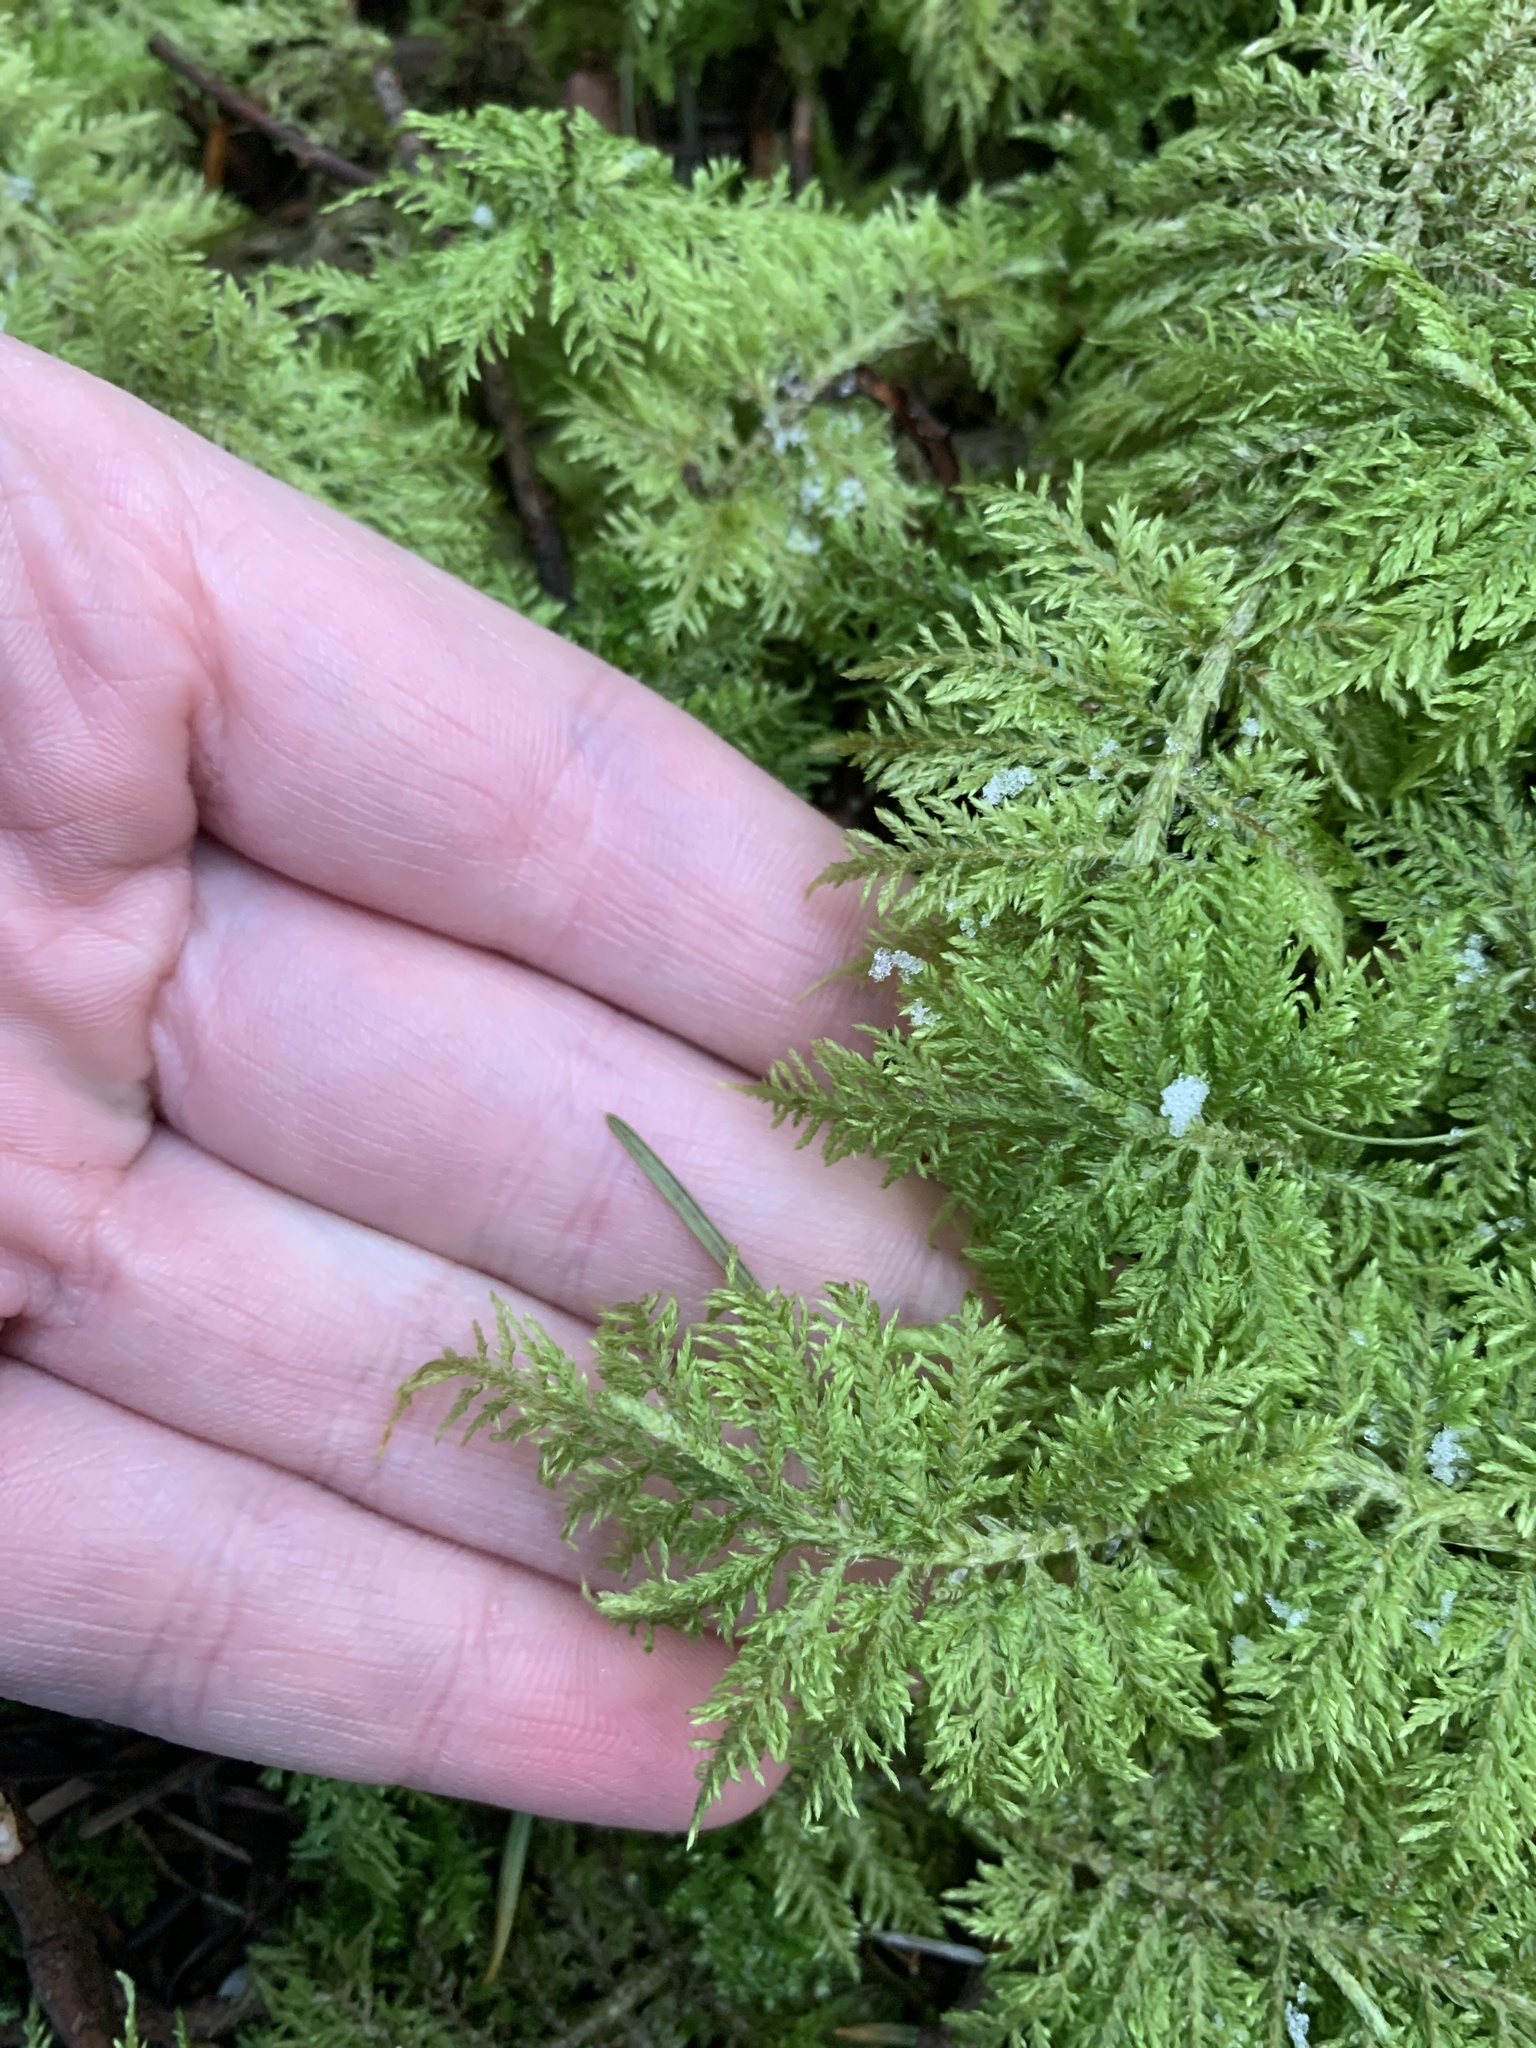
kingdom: Plantae
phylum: Bryophyta
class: Bryopsida
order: Hypnales
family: Hylocomiaceae
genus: Hylocomium
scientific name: Hylocomium splendens
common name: Stairstep moss
